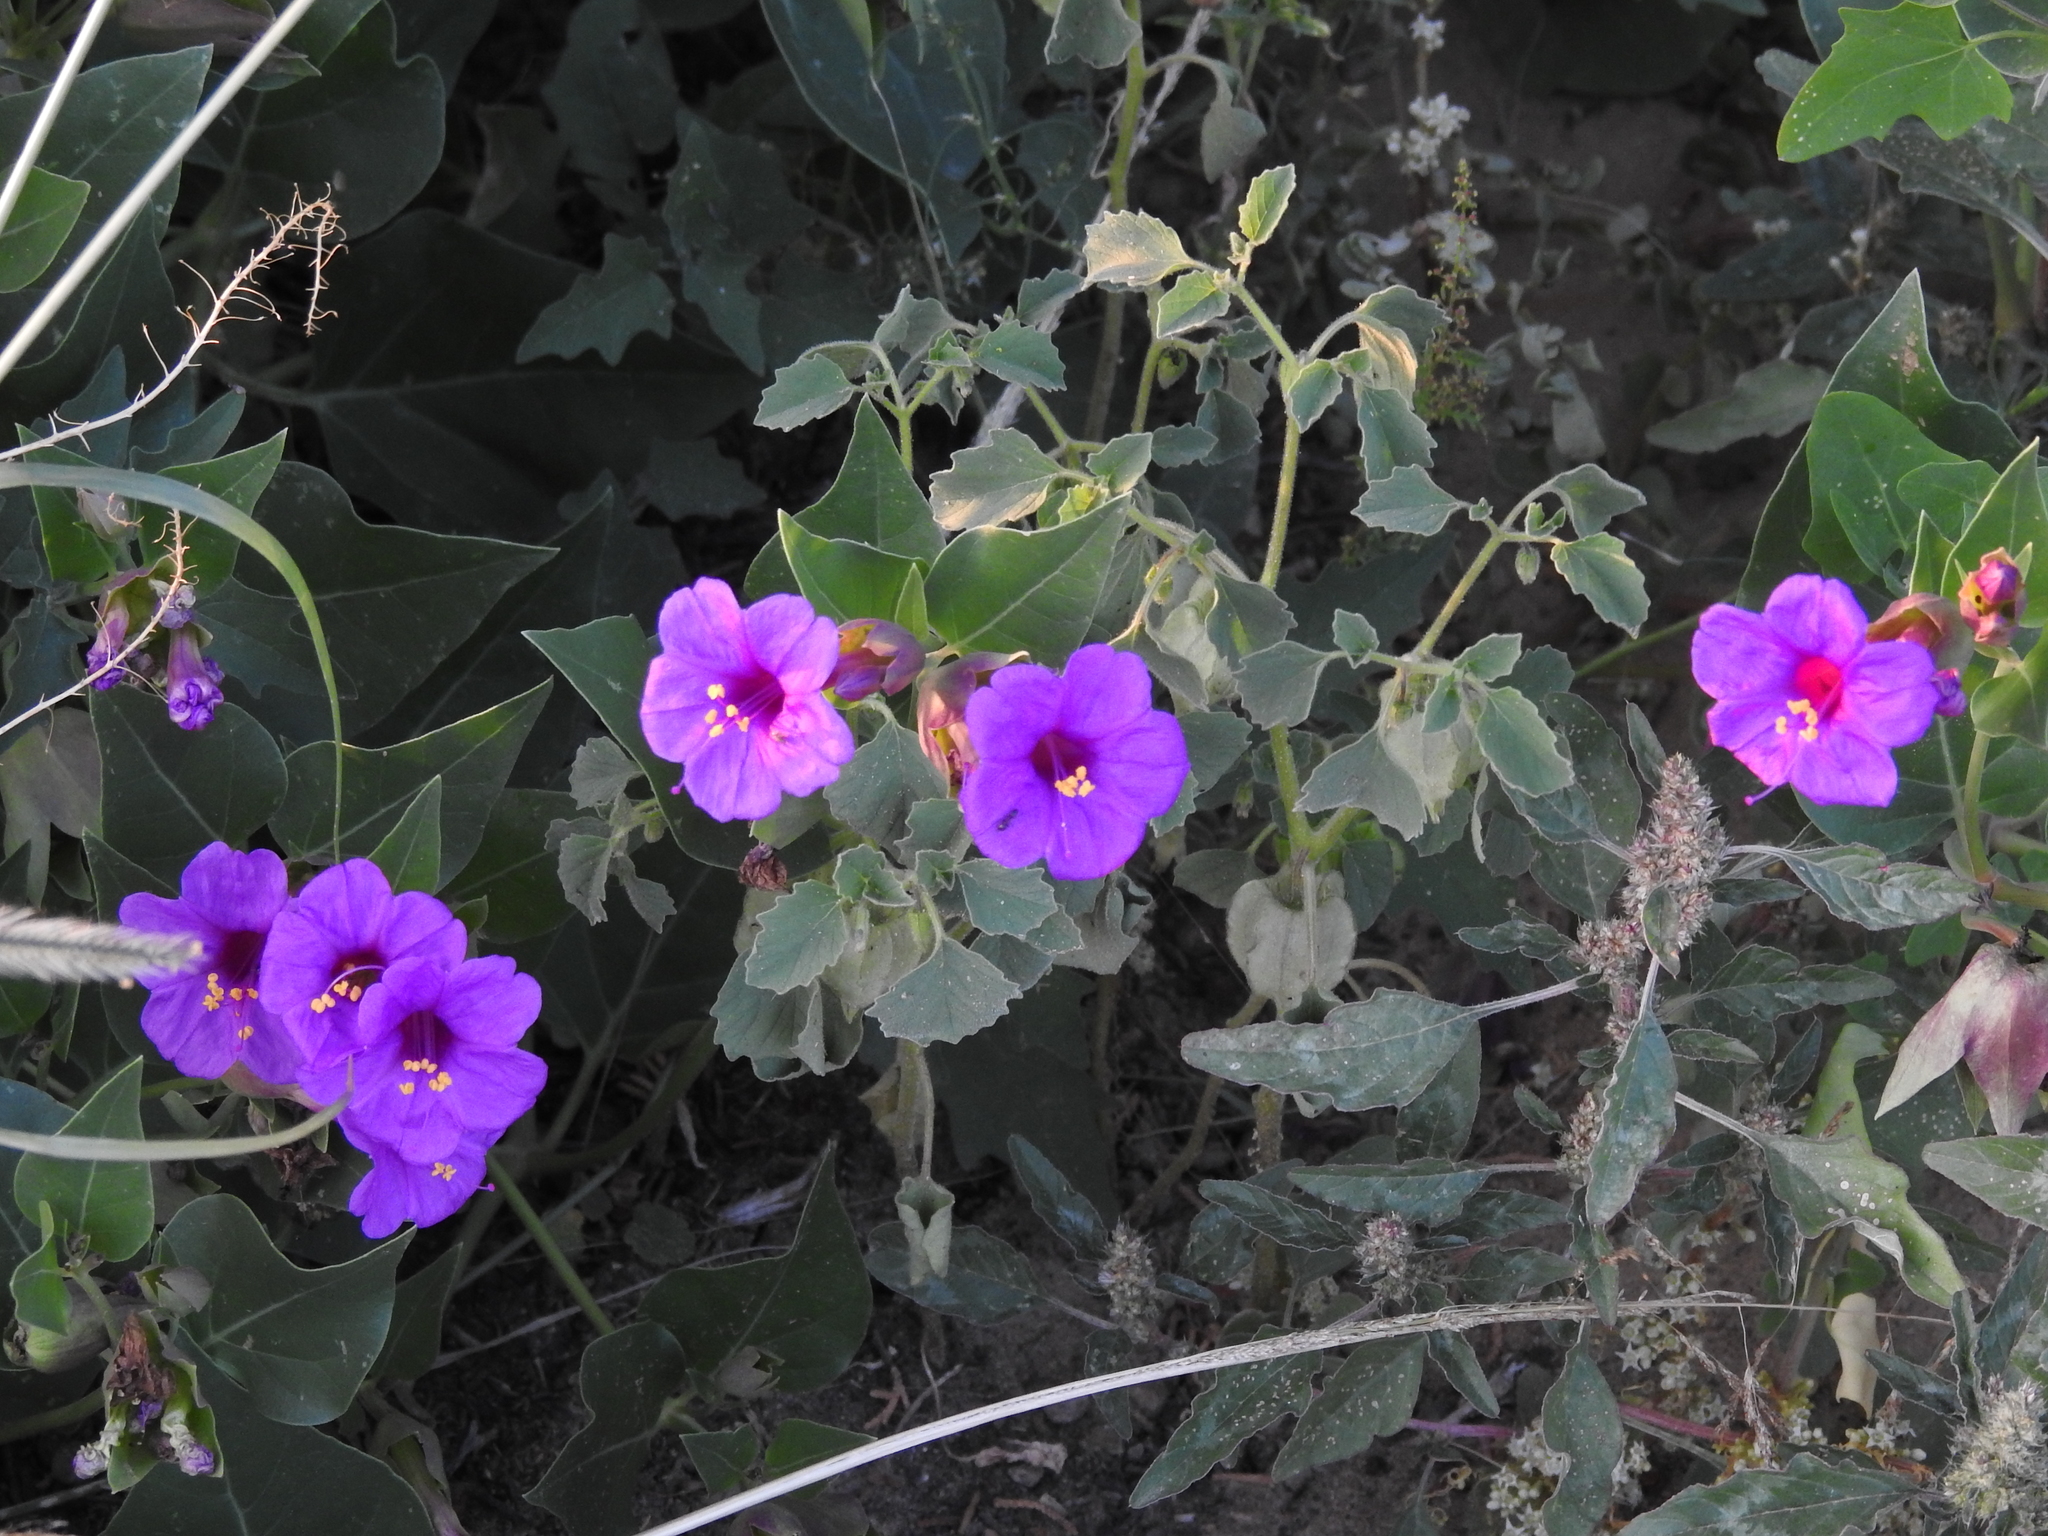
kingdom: Plantae
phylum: Tracheophyta
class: Magnoliopsida
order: Caryophyllales
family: Nyctaginaceae
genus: Mirabilis
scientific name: Mirabilis multiflora
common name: Froebel's four-o'clock
